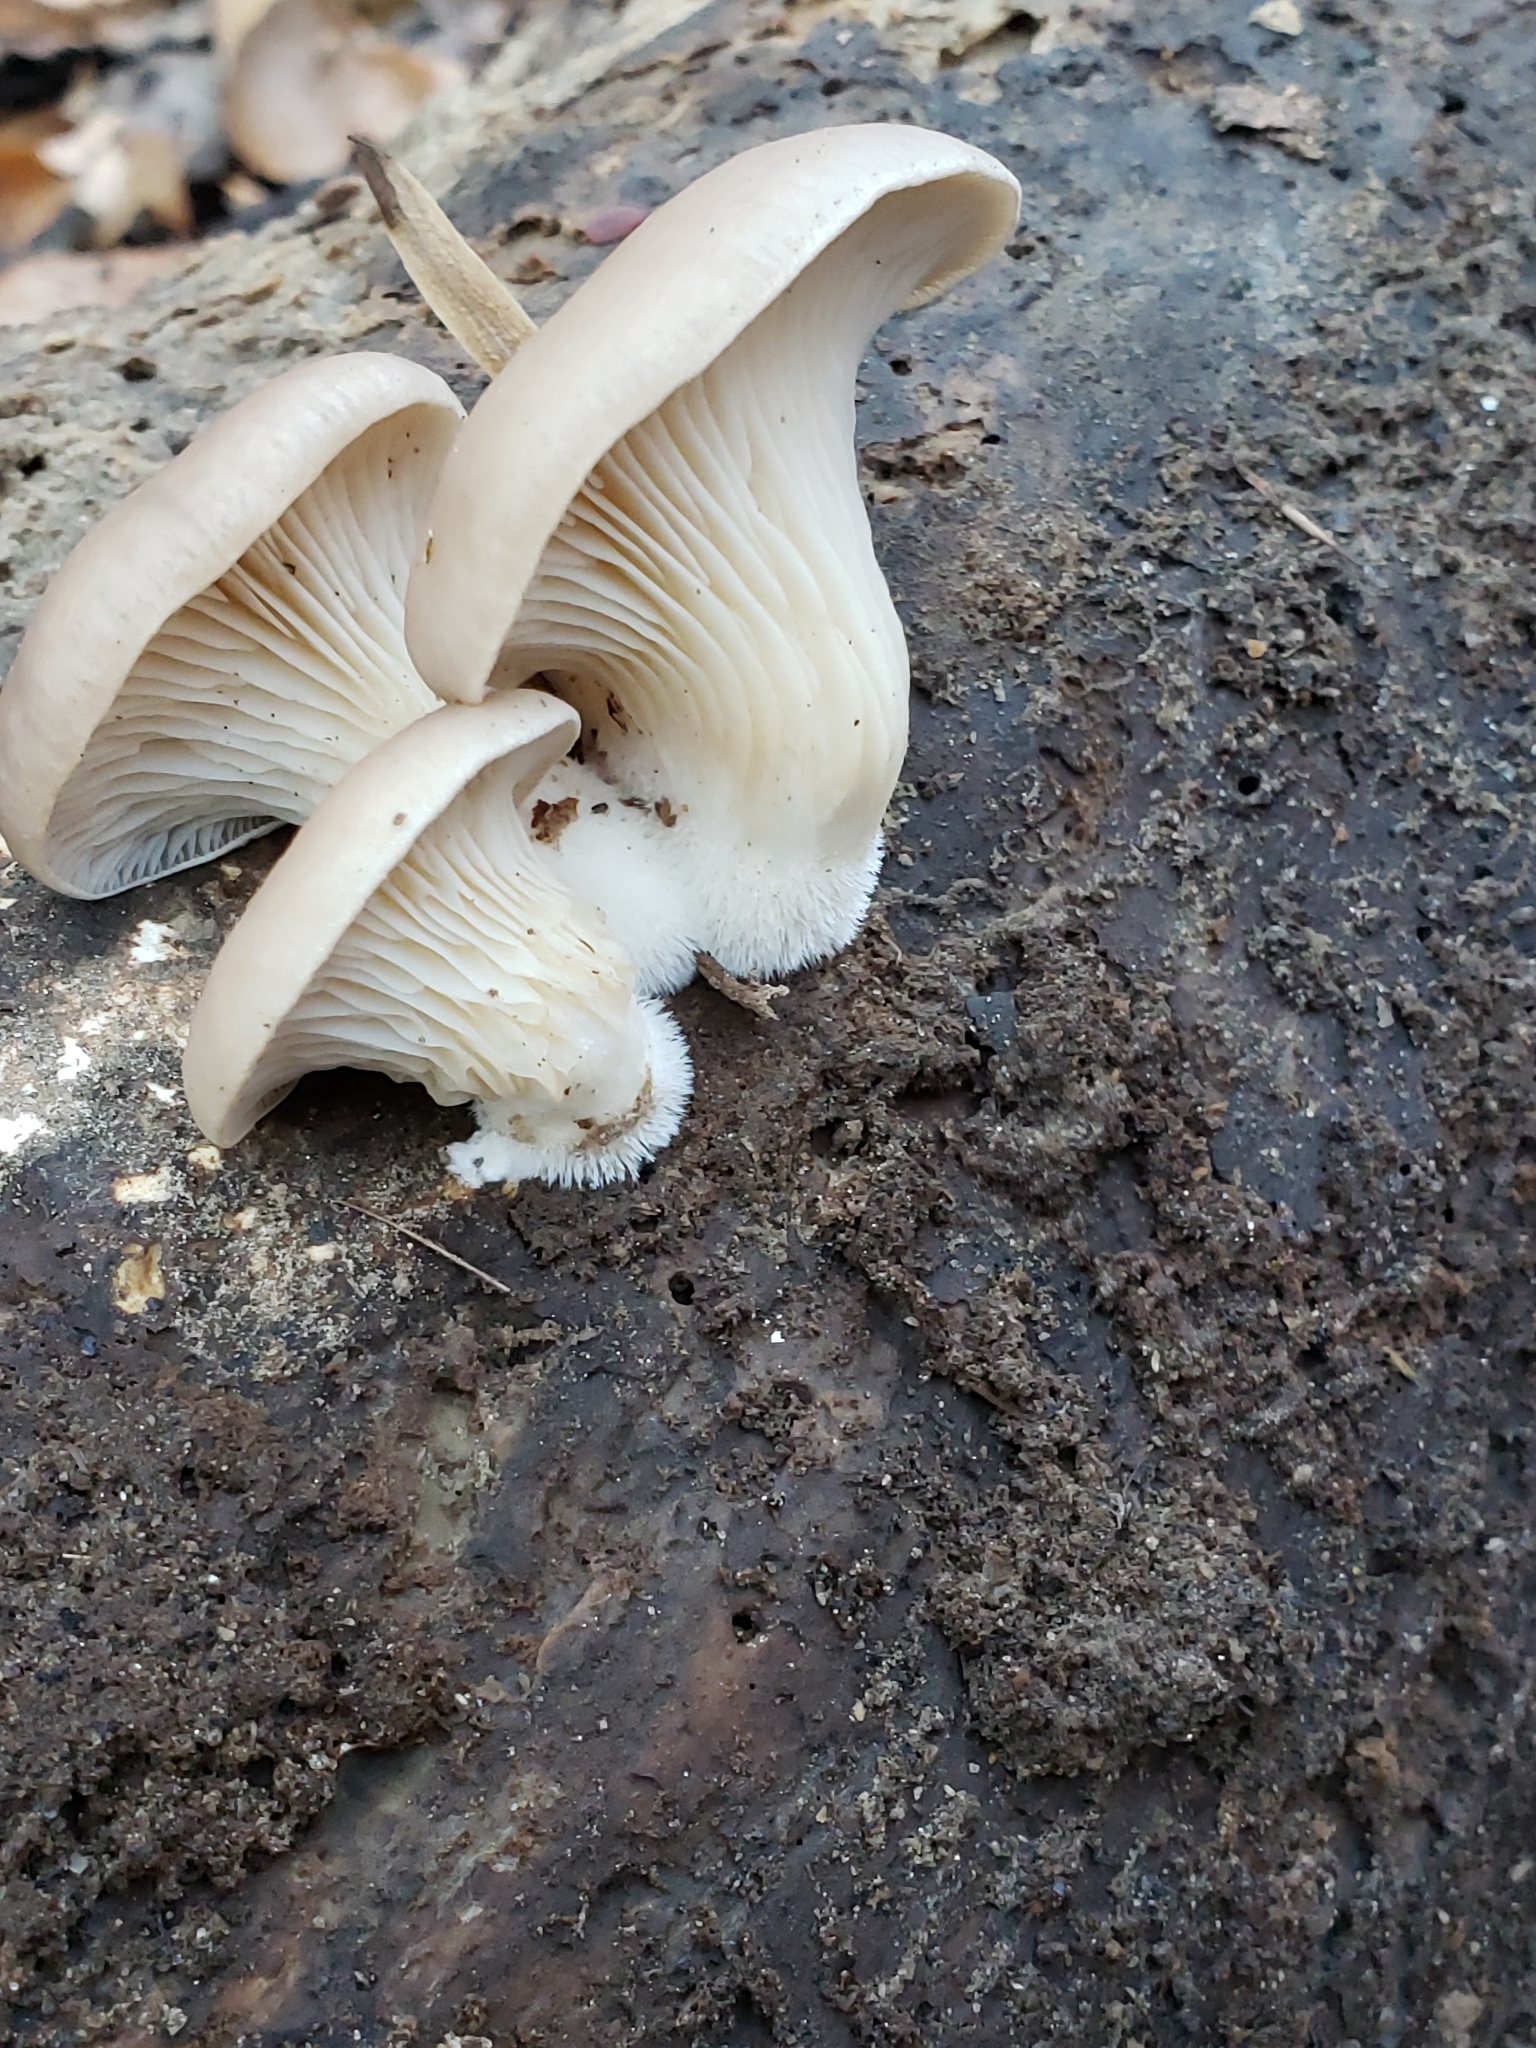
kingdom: Fungi
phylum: Basidiomycota
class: Agaricomycetes
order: Agaricales
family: Pleurotaceae
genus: Pleurotus
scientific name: Pleurotus ostreatus
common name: Oyster mushroom
